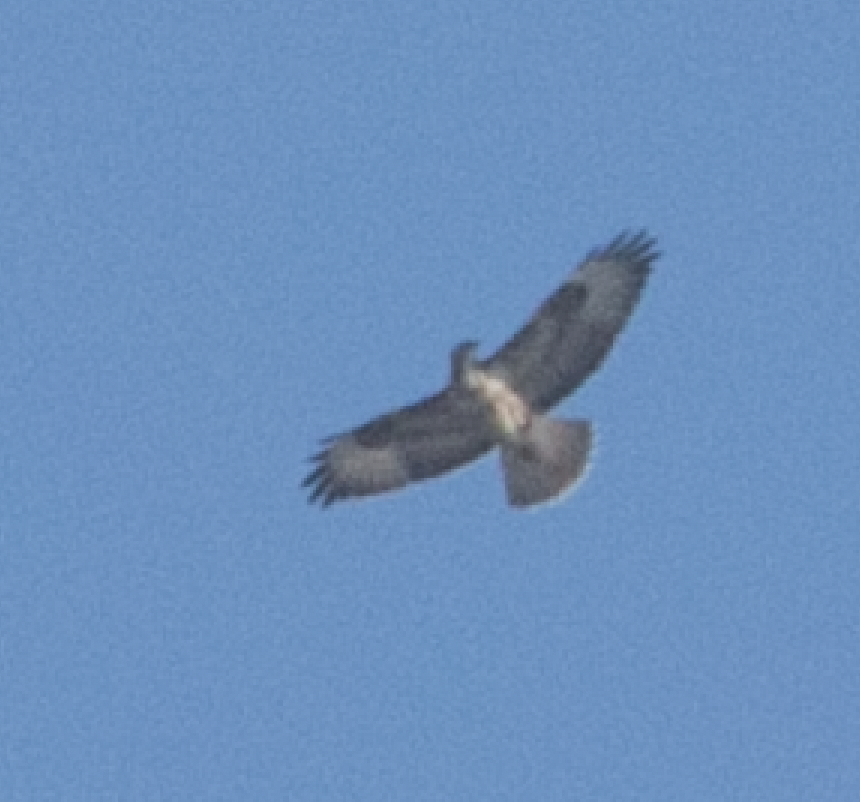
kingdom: Animalia
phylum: Chordata
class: Aves
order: Accipitriformes
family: Accipitridae
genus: Buteo
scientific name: Buteo buteo
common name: Common buzzard
